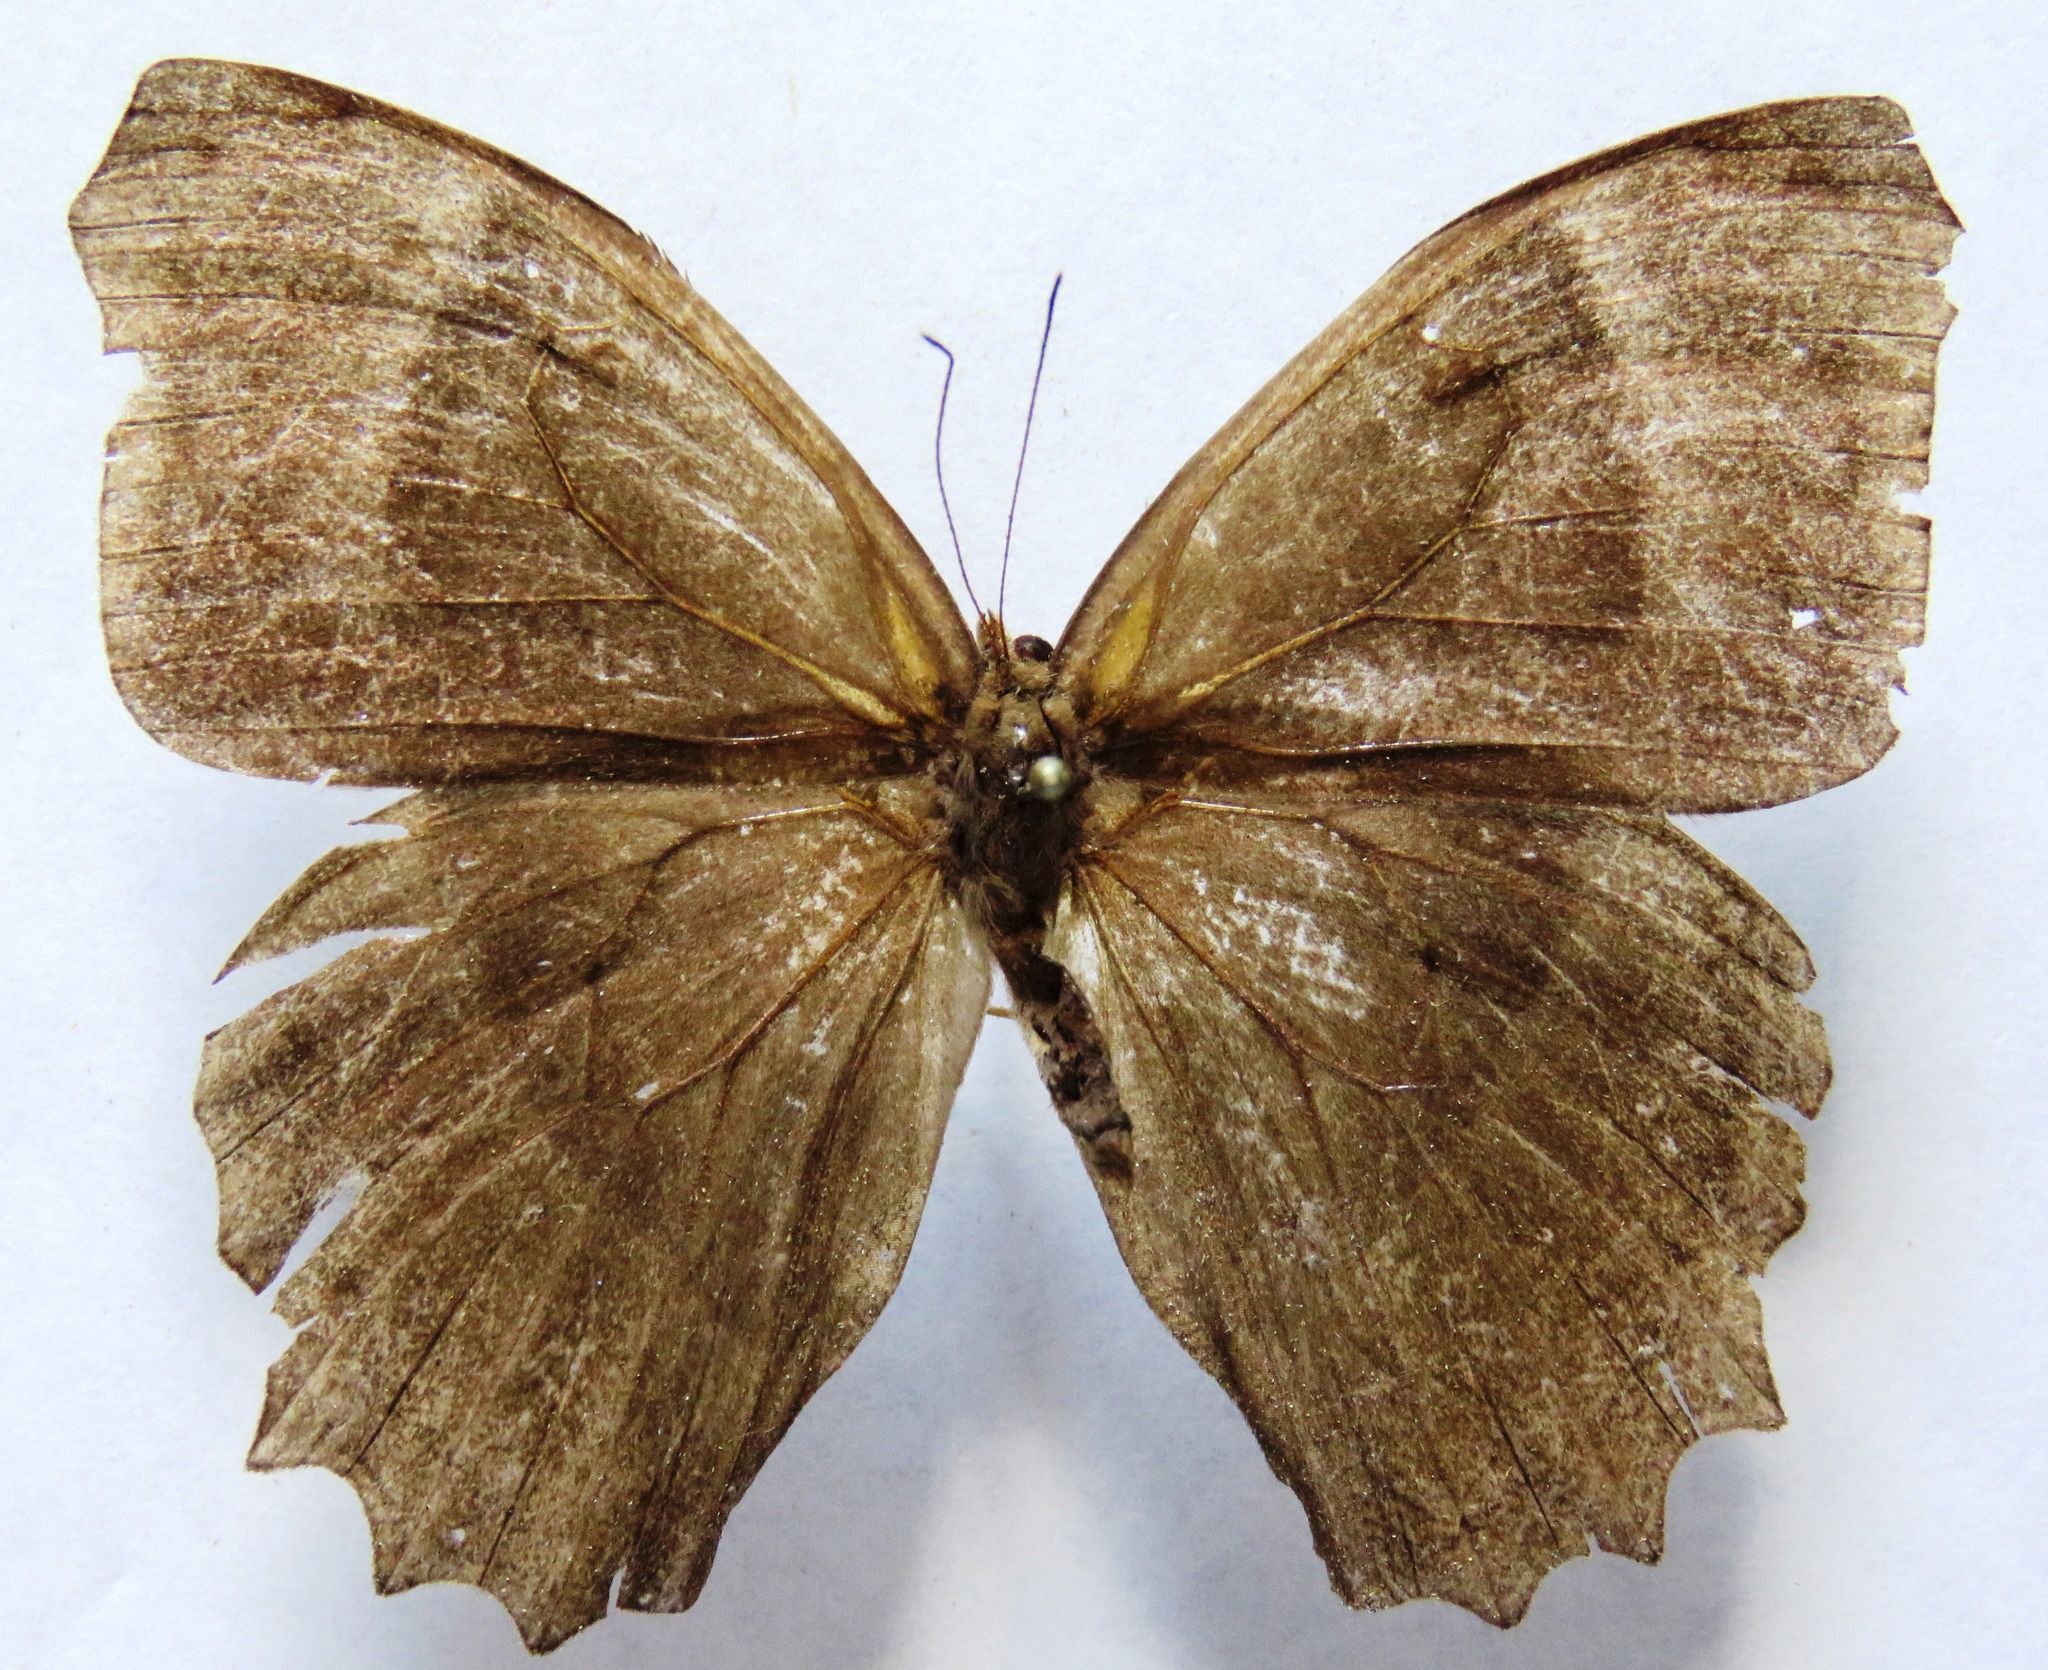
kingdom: Animalia
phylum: Arthropoda
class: Insecta
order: Lepidoptera
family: Nymphalidae
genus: Taygetis
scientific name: Taygetis inconspicua
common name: Inconspicuous satyr
